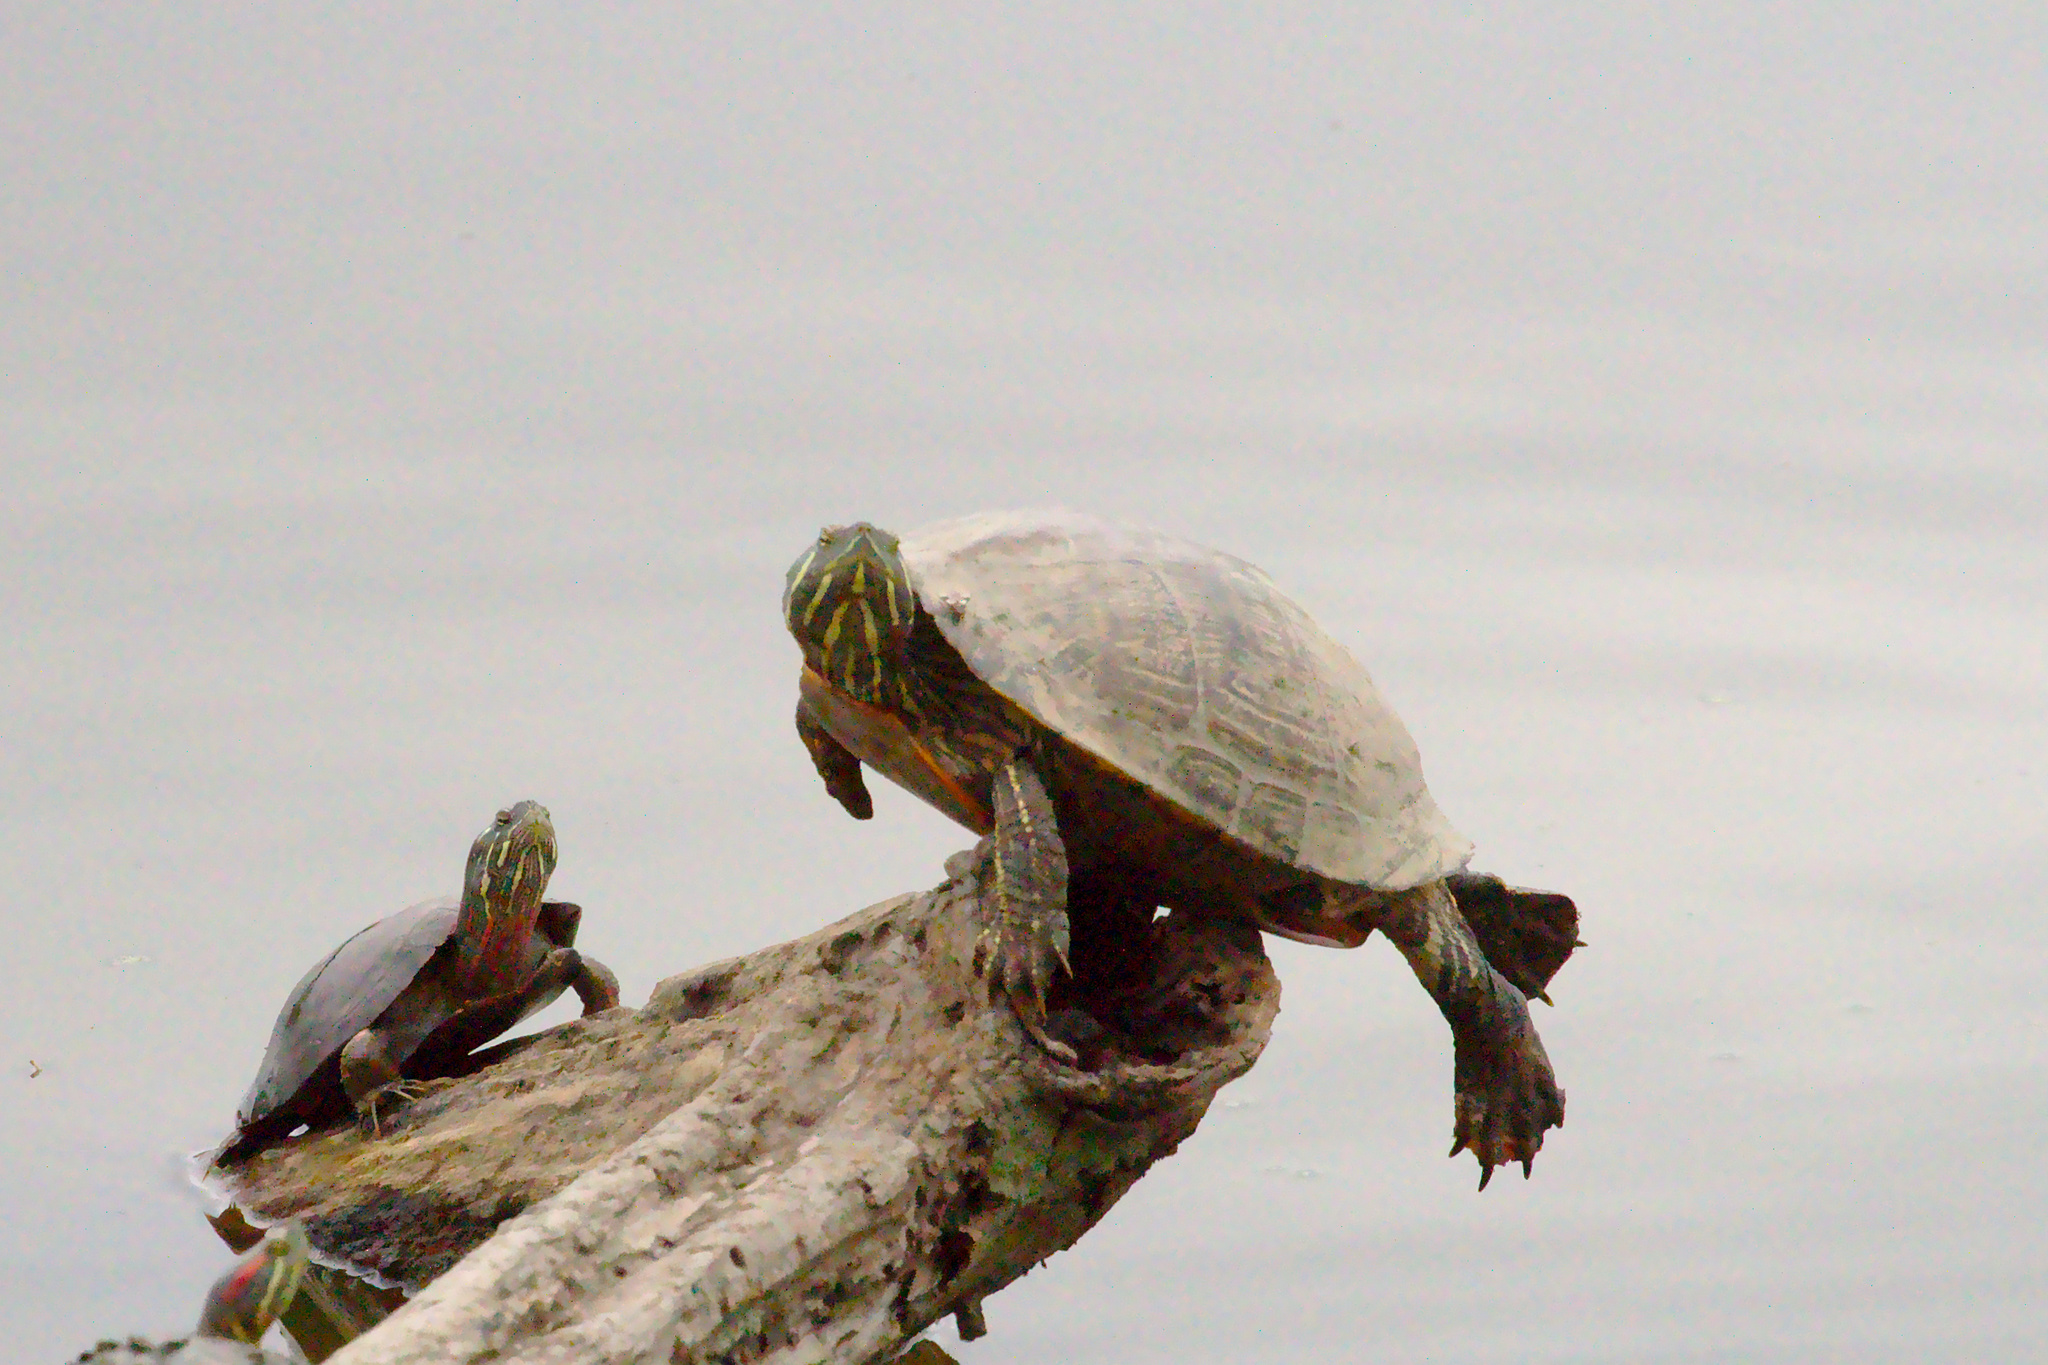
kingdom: Animalia
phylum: Chordata
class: Testudines
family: Emydidae
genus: Chrysemys
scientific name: Chrysemys picta
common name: Painted turtle
